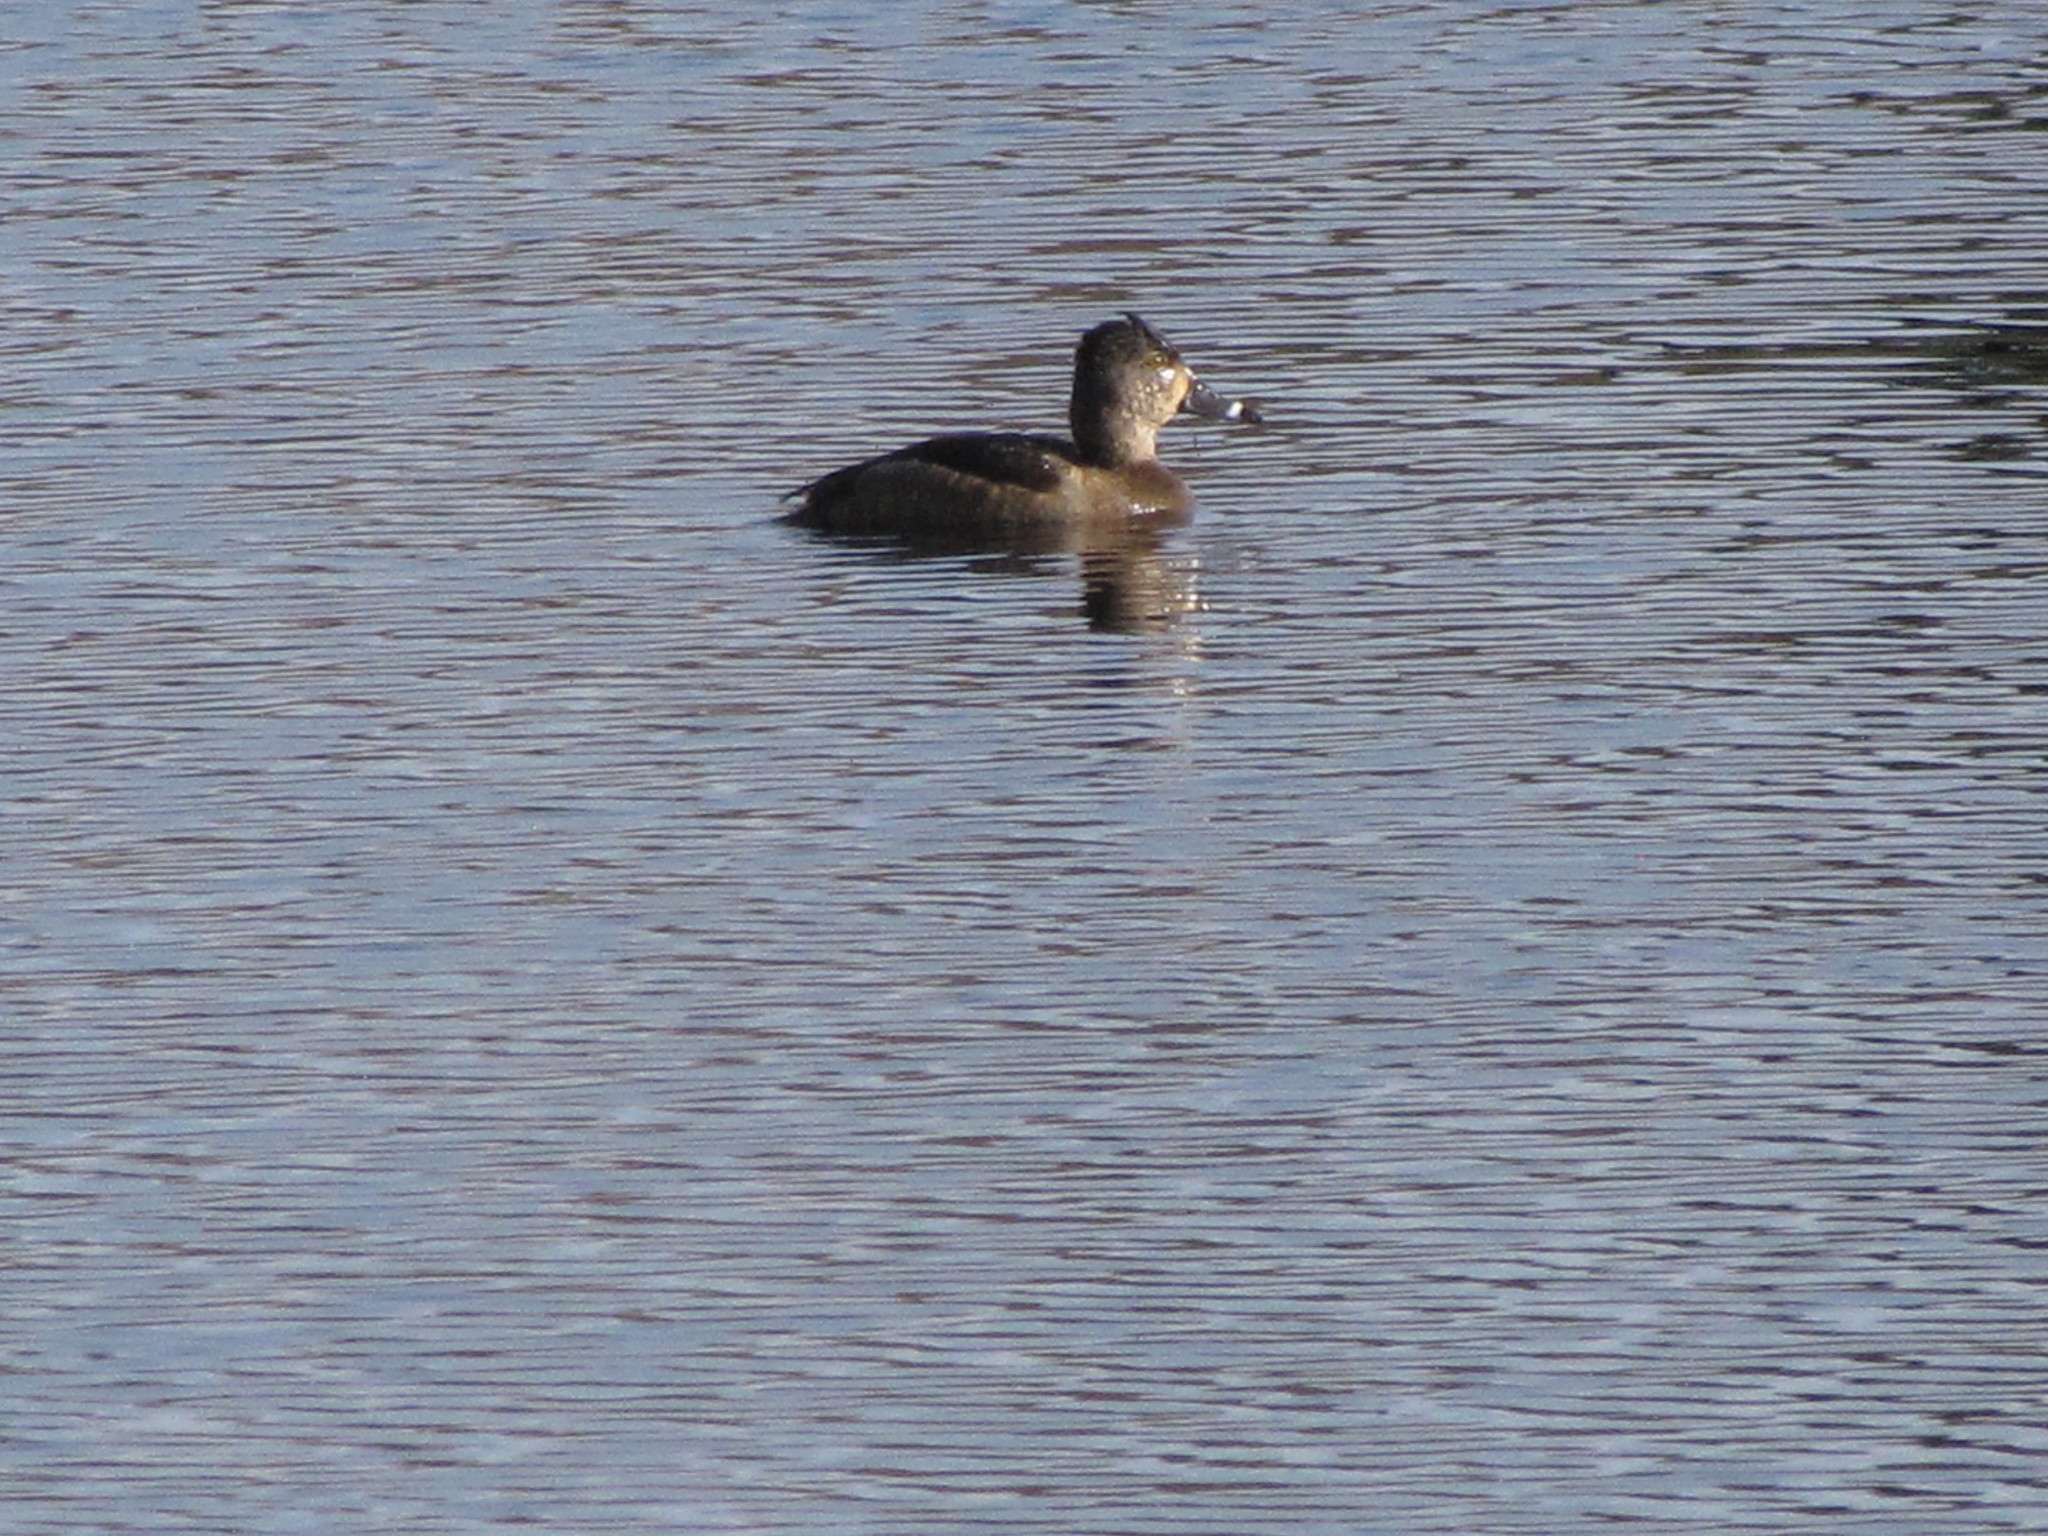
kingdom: Animalia
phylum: Chordata
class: Aves
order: Anseriformes
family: Anatidae
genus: Aythya
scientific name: Aythya collaris
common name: Ring-necked duck
